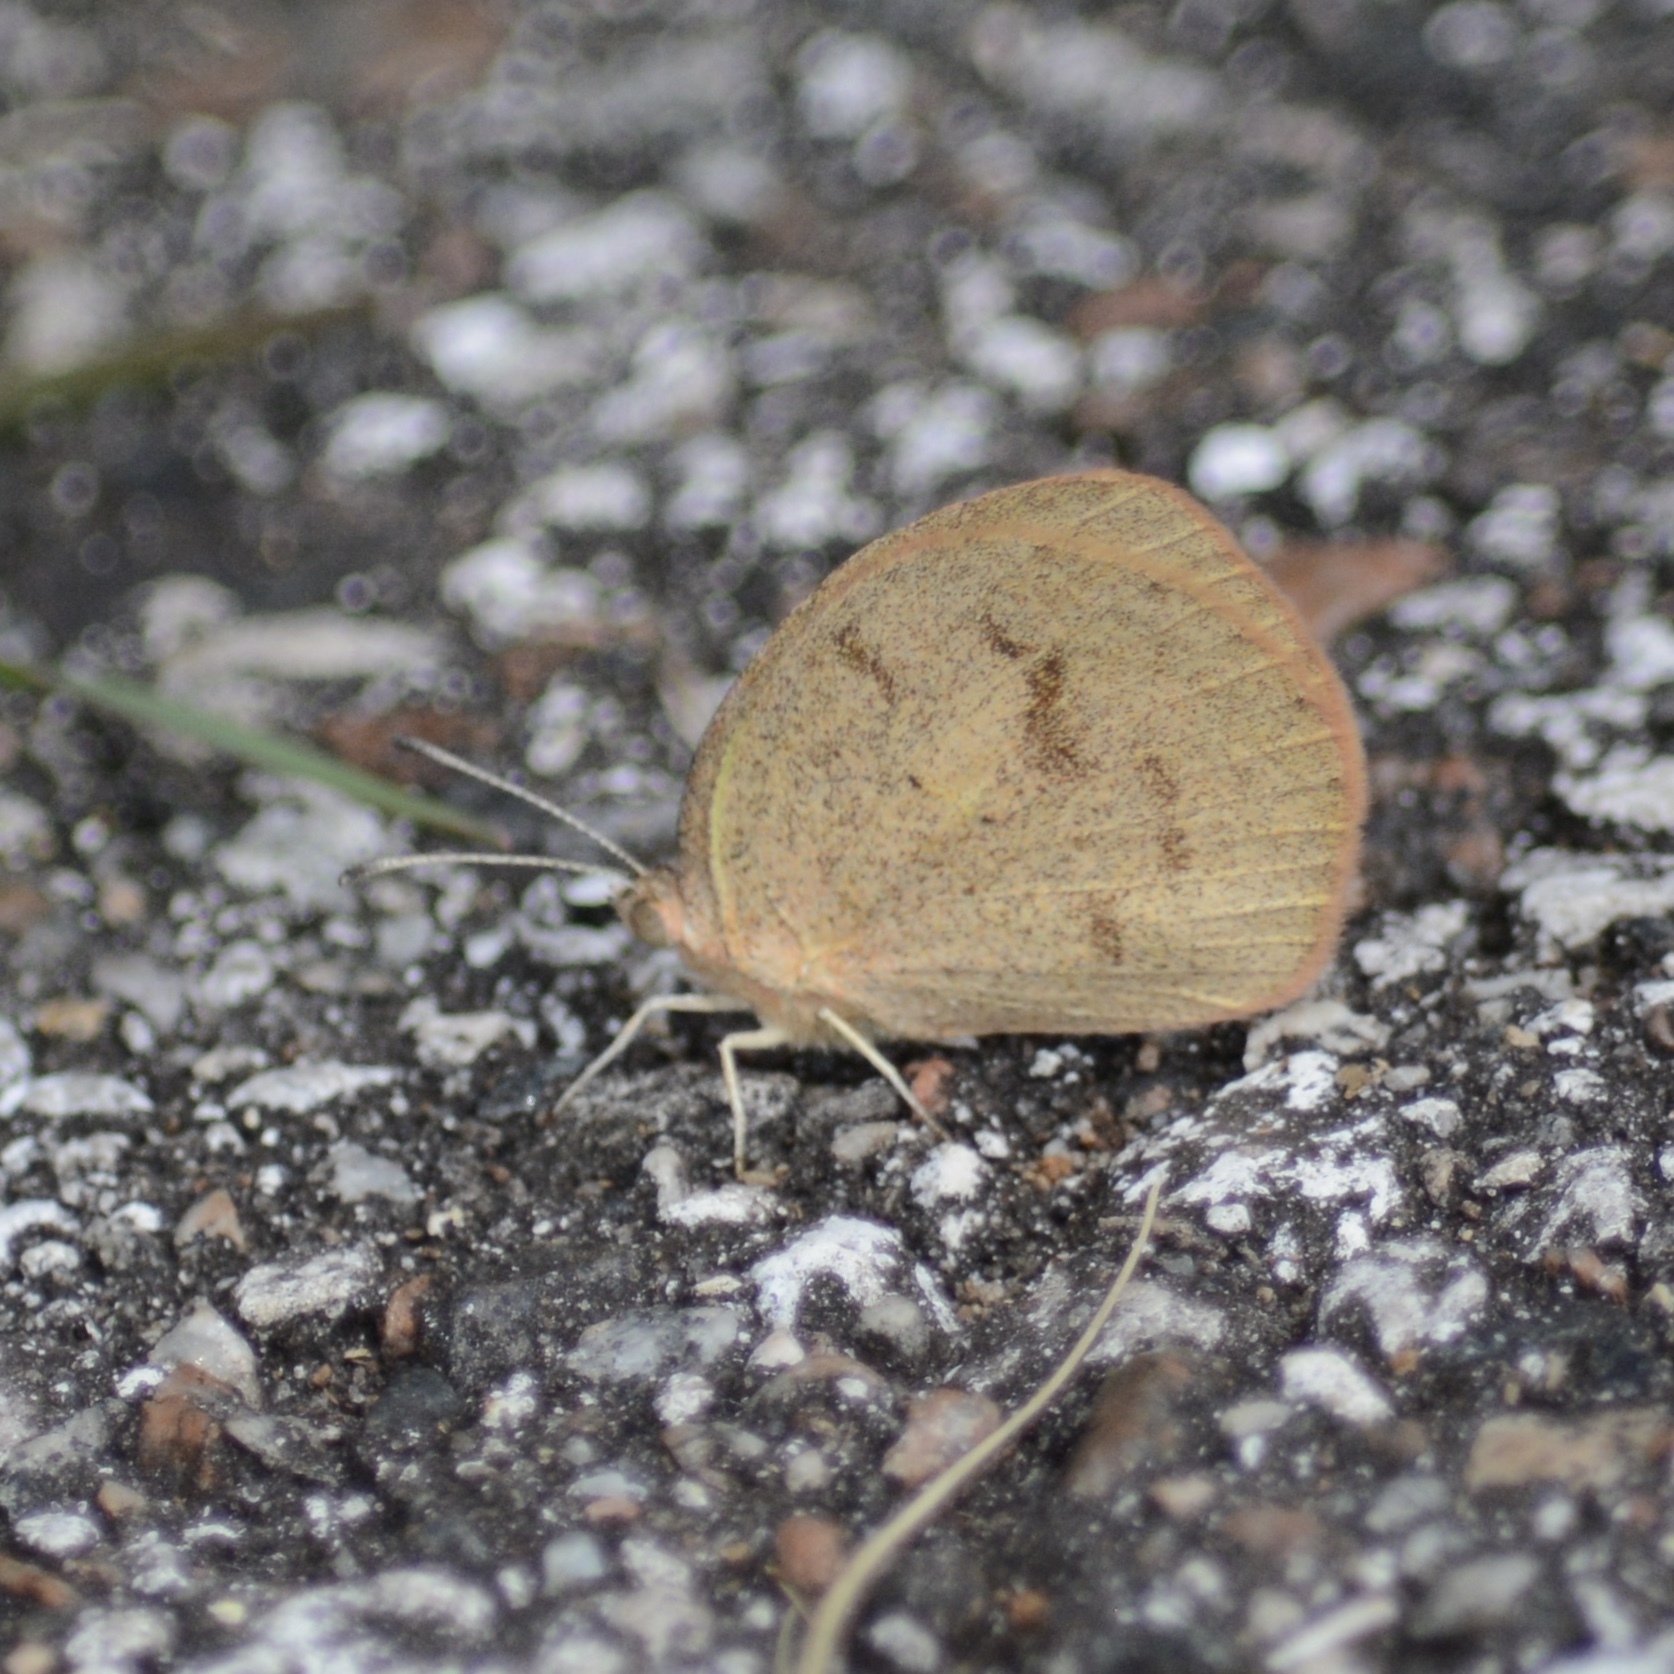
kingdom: Animalia
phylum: Arthropoda
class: Insecta
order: Lepidoptera
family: Pieridae
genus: Eurema
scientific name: Eurema daira
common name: Barred sulphur
